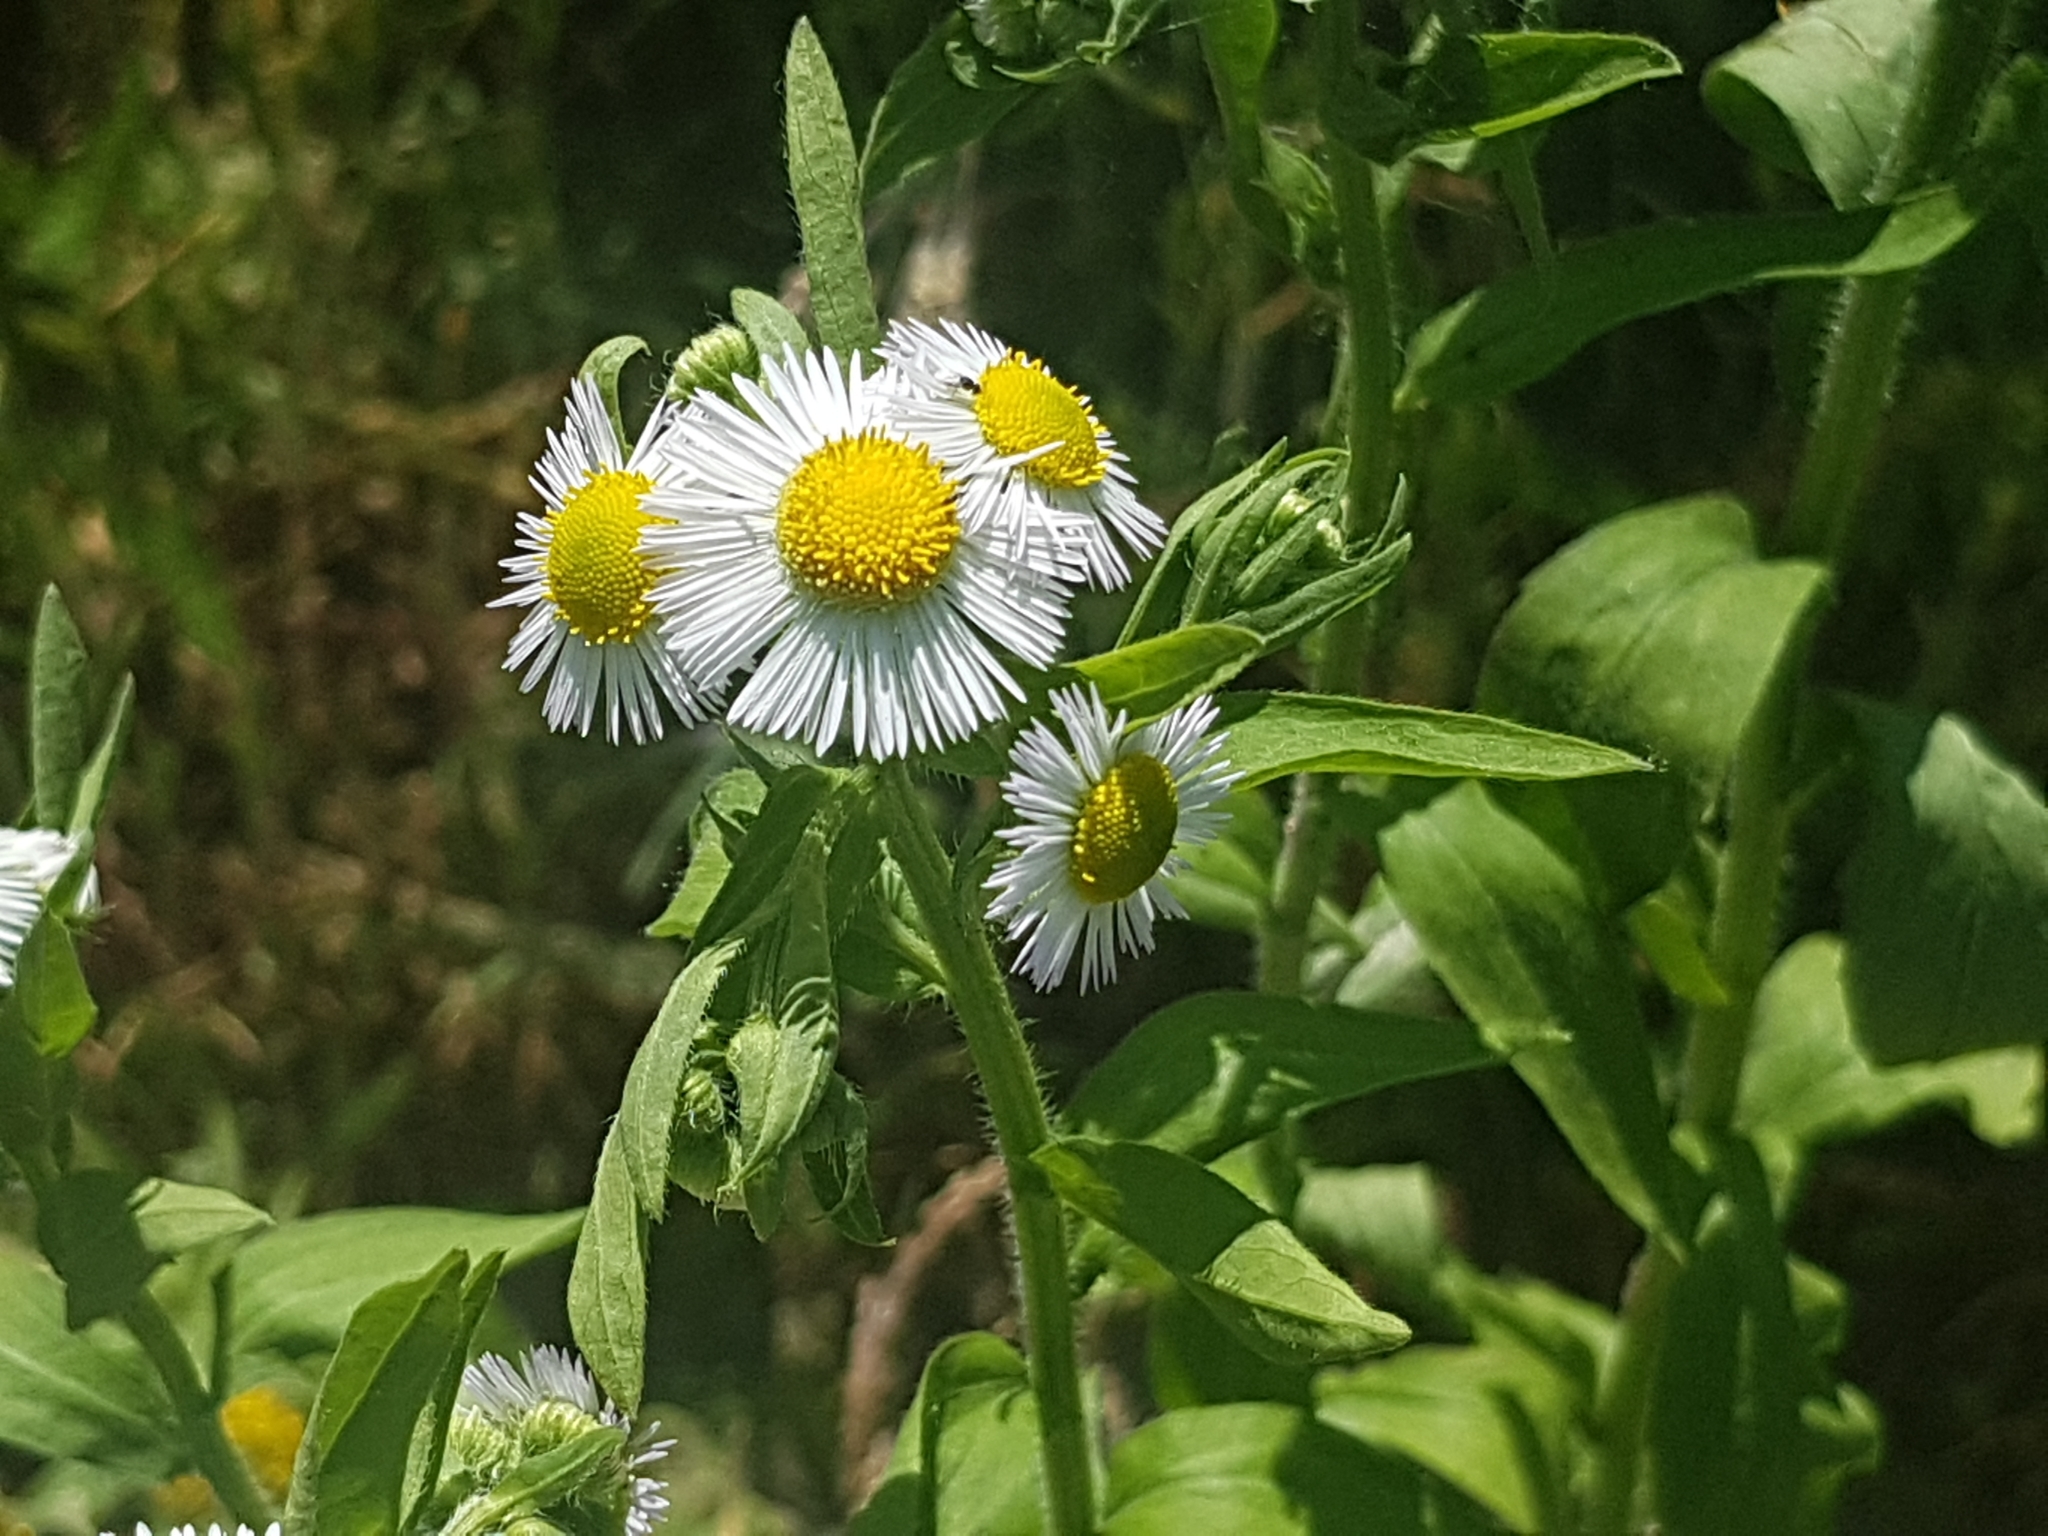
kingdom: Plantae
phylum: Tracheophyta
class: Magnoliopsida
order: Asterales
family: Asteraceae
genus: Erigeron
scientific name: Erigeron annuus
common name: Tall fleabane
